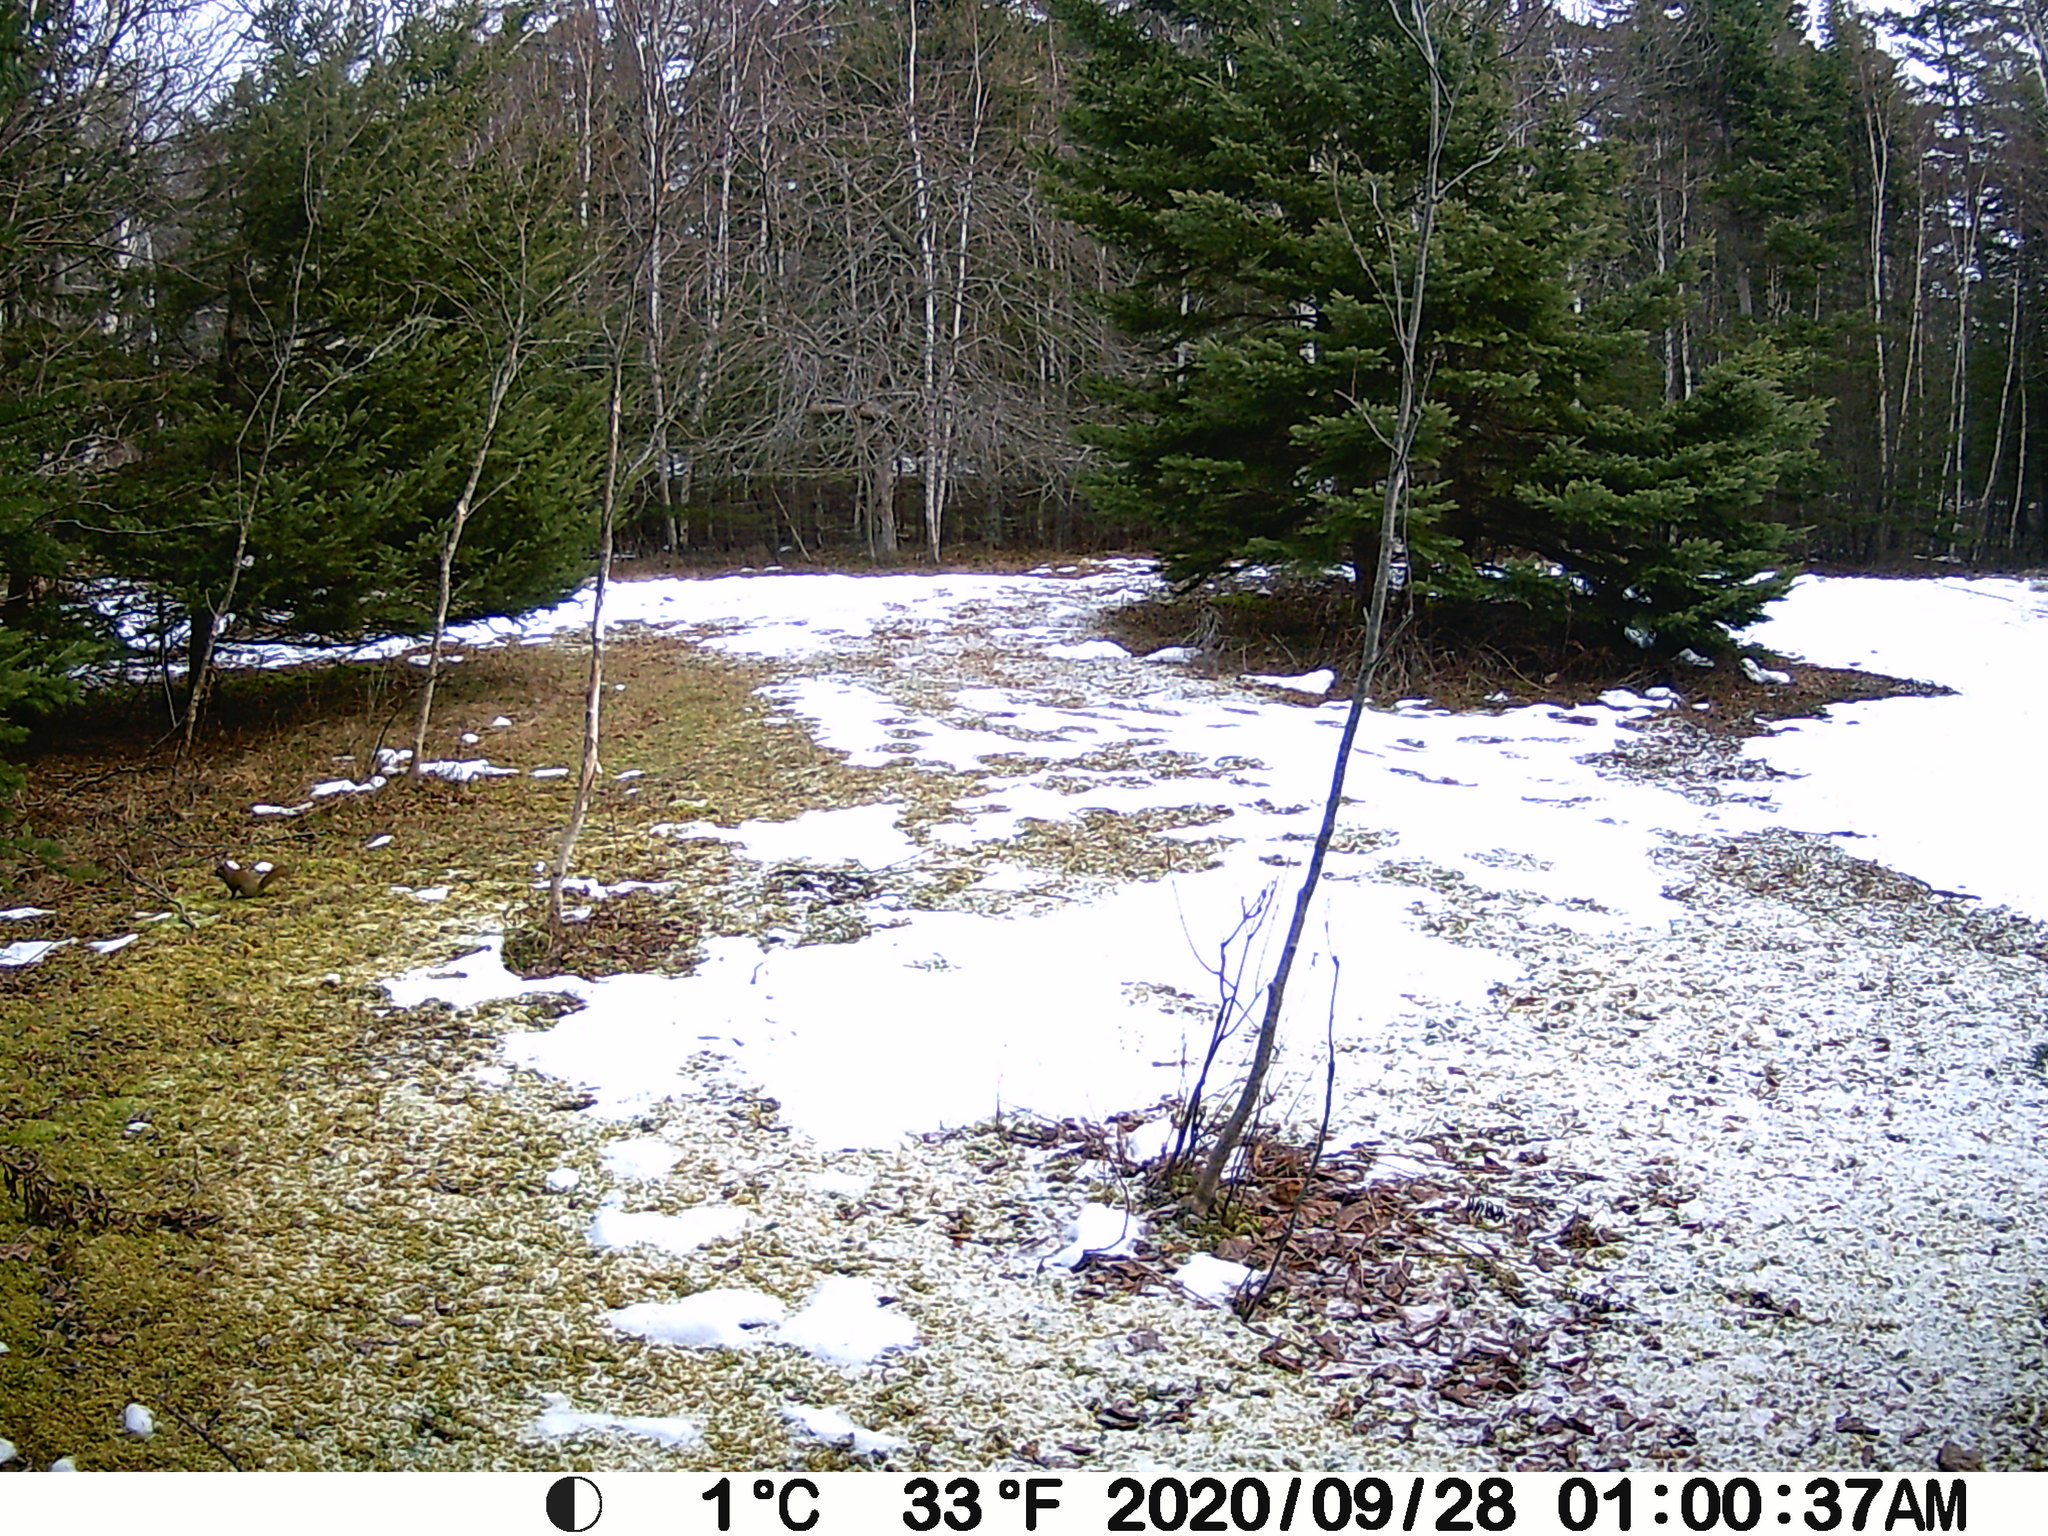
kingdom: Animalia
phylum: Chordata
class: Mammalia
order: Rodentia
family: Sciuridae
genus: Tamiasciurus
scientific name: Tamiasciurus hudsonicus
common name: Red squirrel
